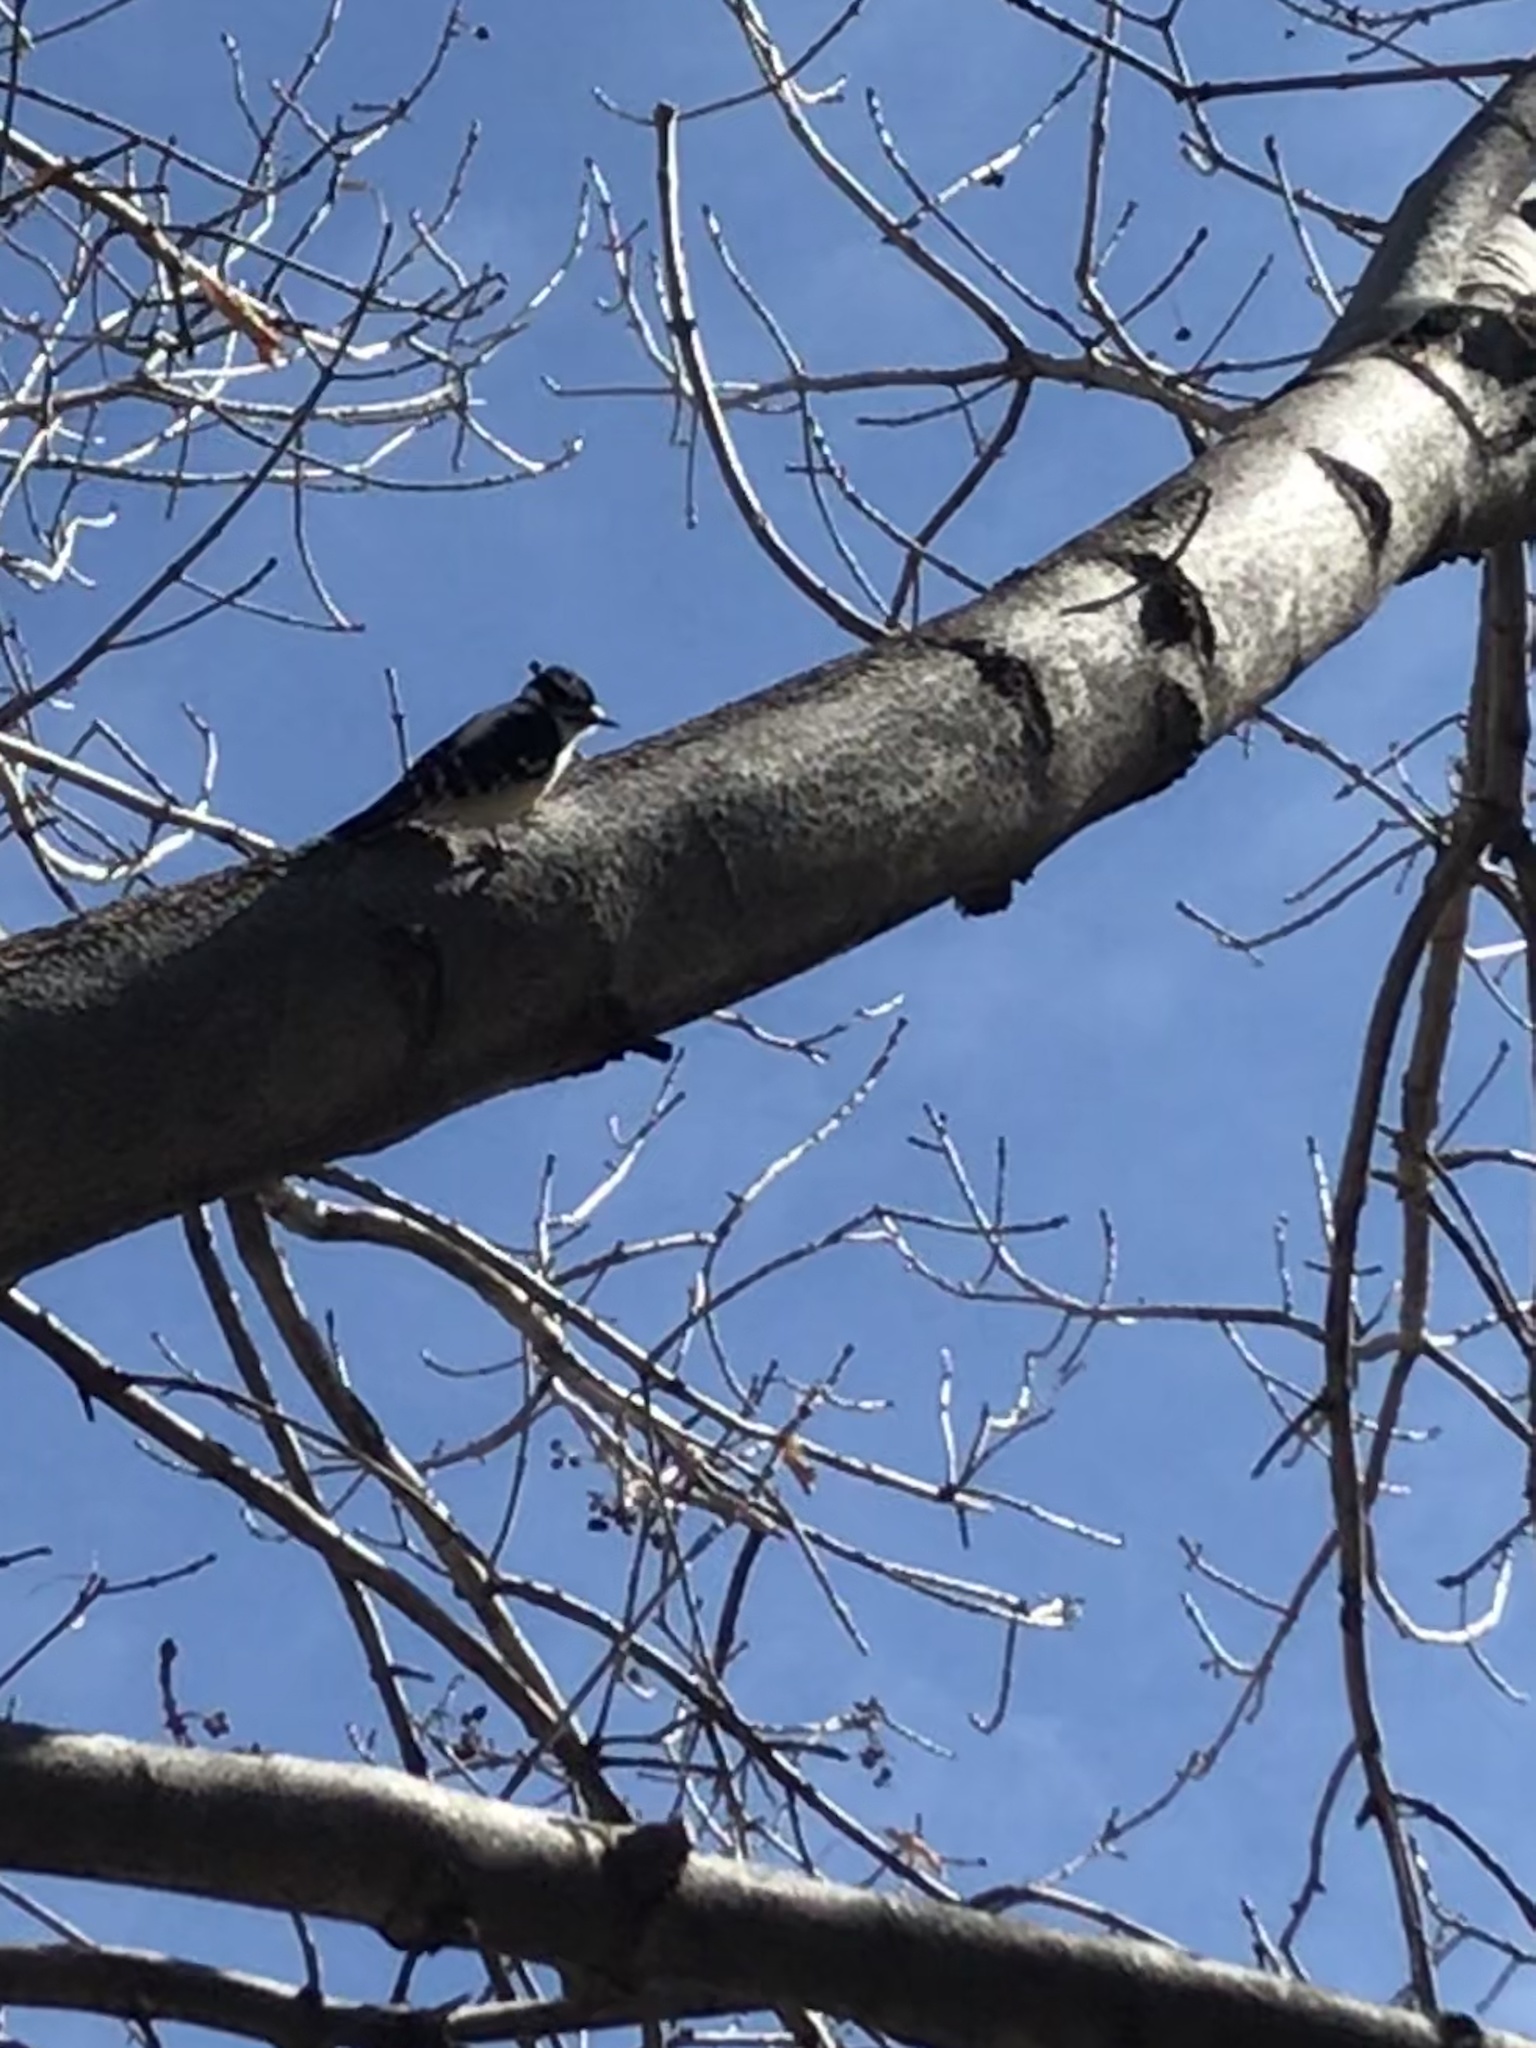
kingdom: Animalia
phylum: Chordata
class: Aves
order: Piciformes
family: Picidae
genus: Dryobates
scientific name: Dryobates pubescens
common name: Downy woodpecker
